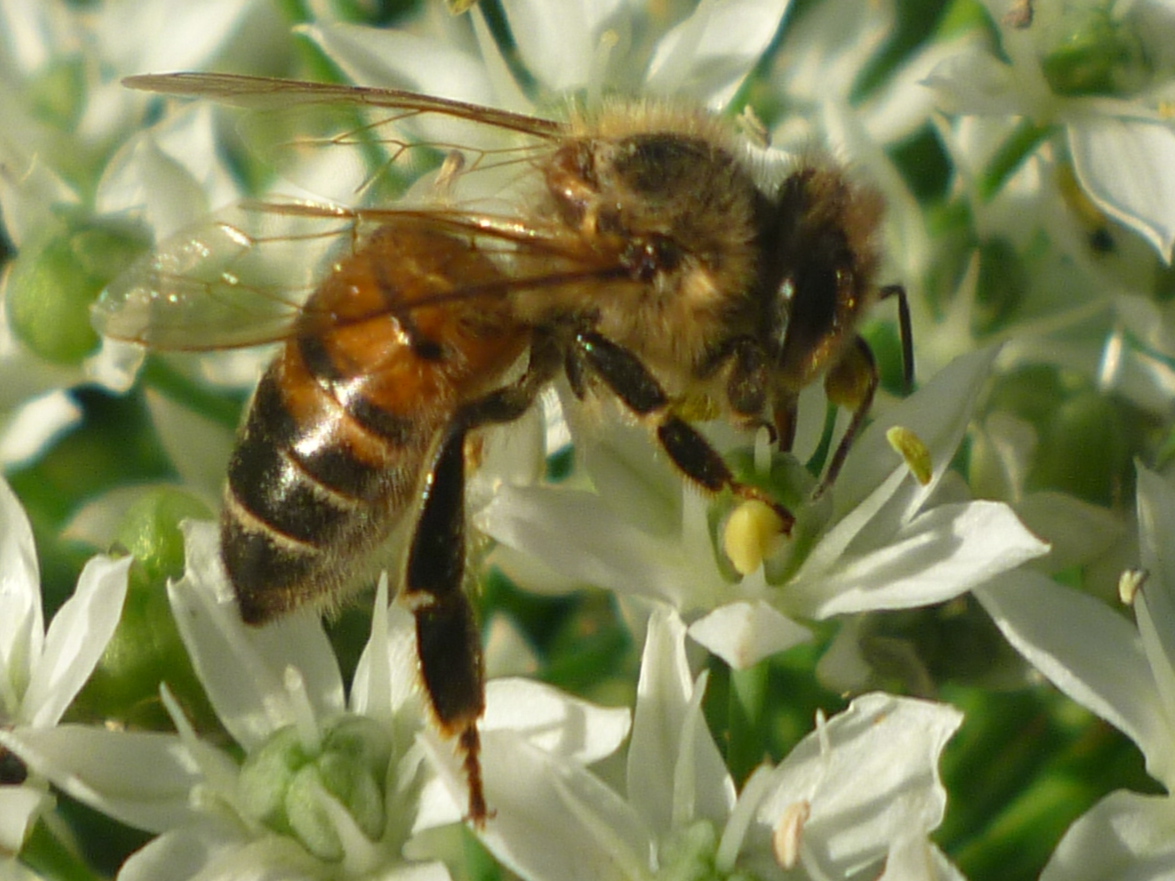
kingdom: Animalia
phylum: Arthropoda
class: Insecta
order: Hymenoptera
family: Apidae
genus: Apis
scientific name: Apis mellifera
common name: Honey bee
